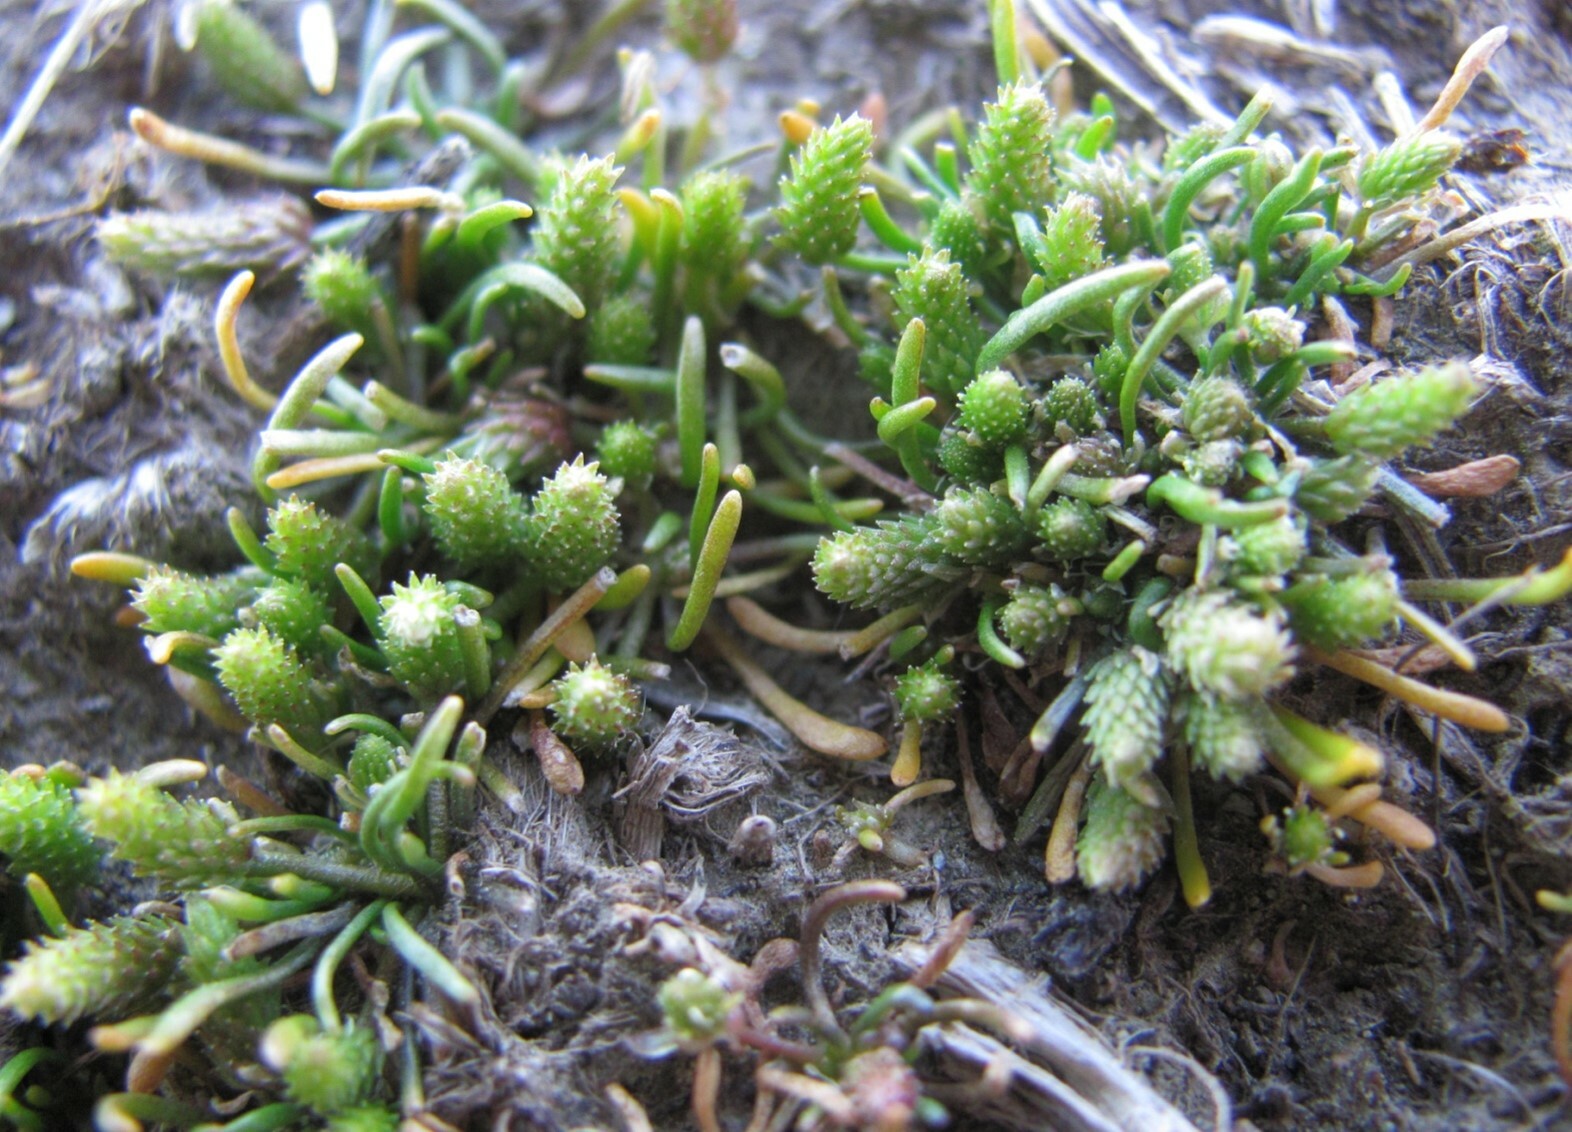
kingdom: Plantae
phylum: Tracheophyta
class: Magnoliopsida
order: Ranunculales
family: Ranunculaceae
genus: Myosurus
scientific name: Myosurus minimus
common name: Mousetail
